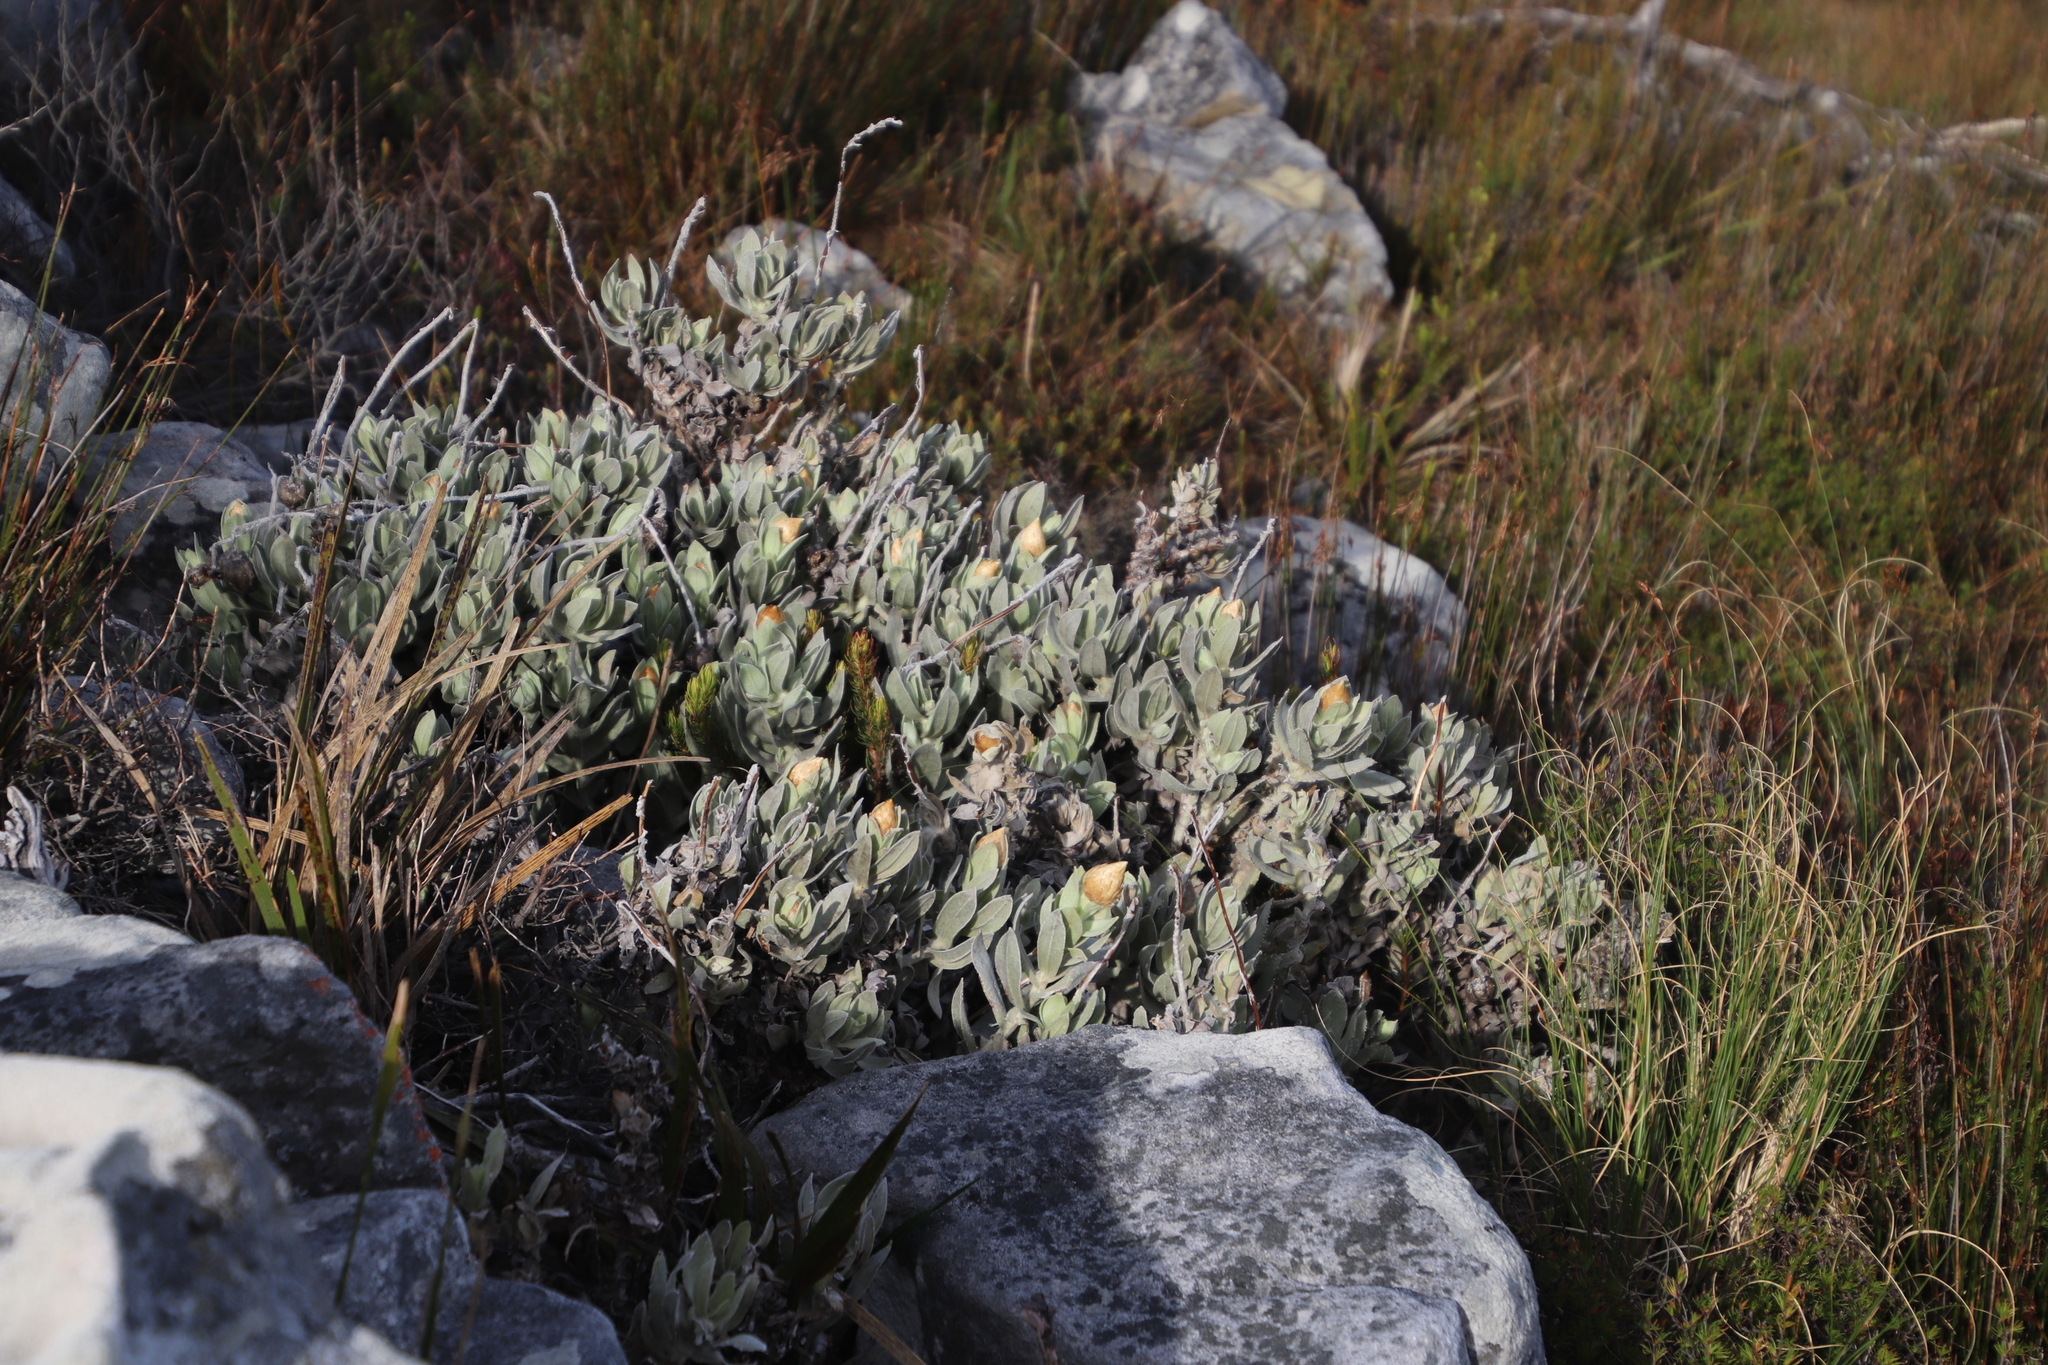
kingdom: Plantae
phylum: Tracheophyta
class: Magnoliopsida
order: Asterales
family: Asteraceae
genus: Syncarpha
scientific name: Syncarpha speciosissima
